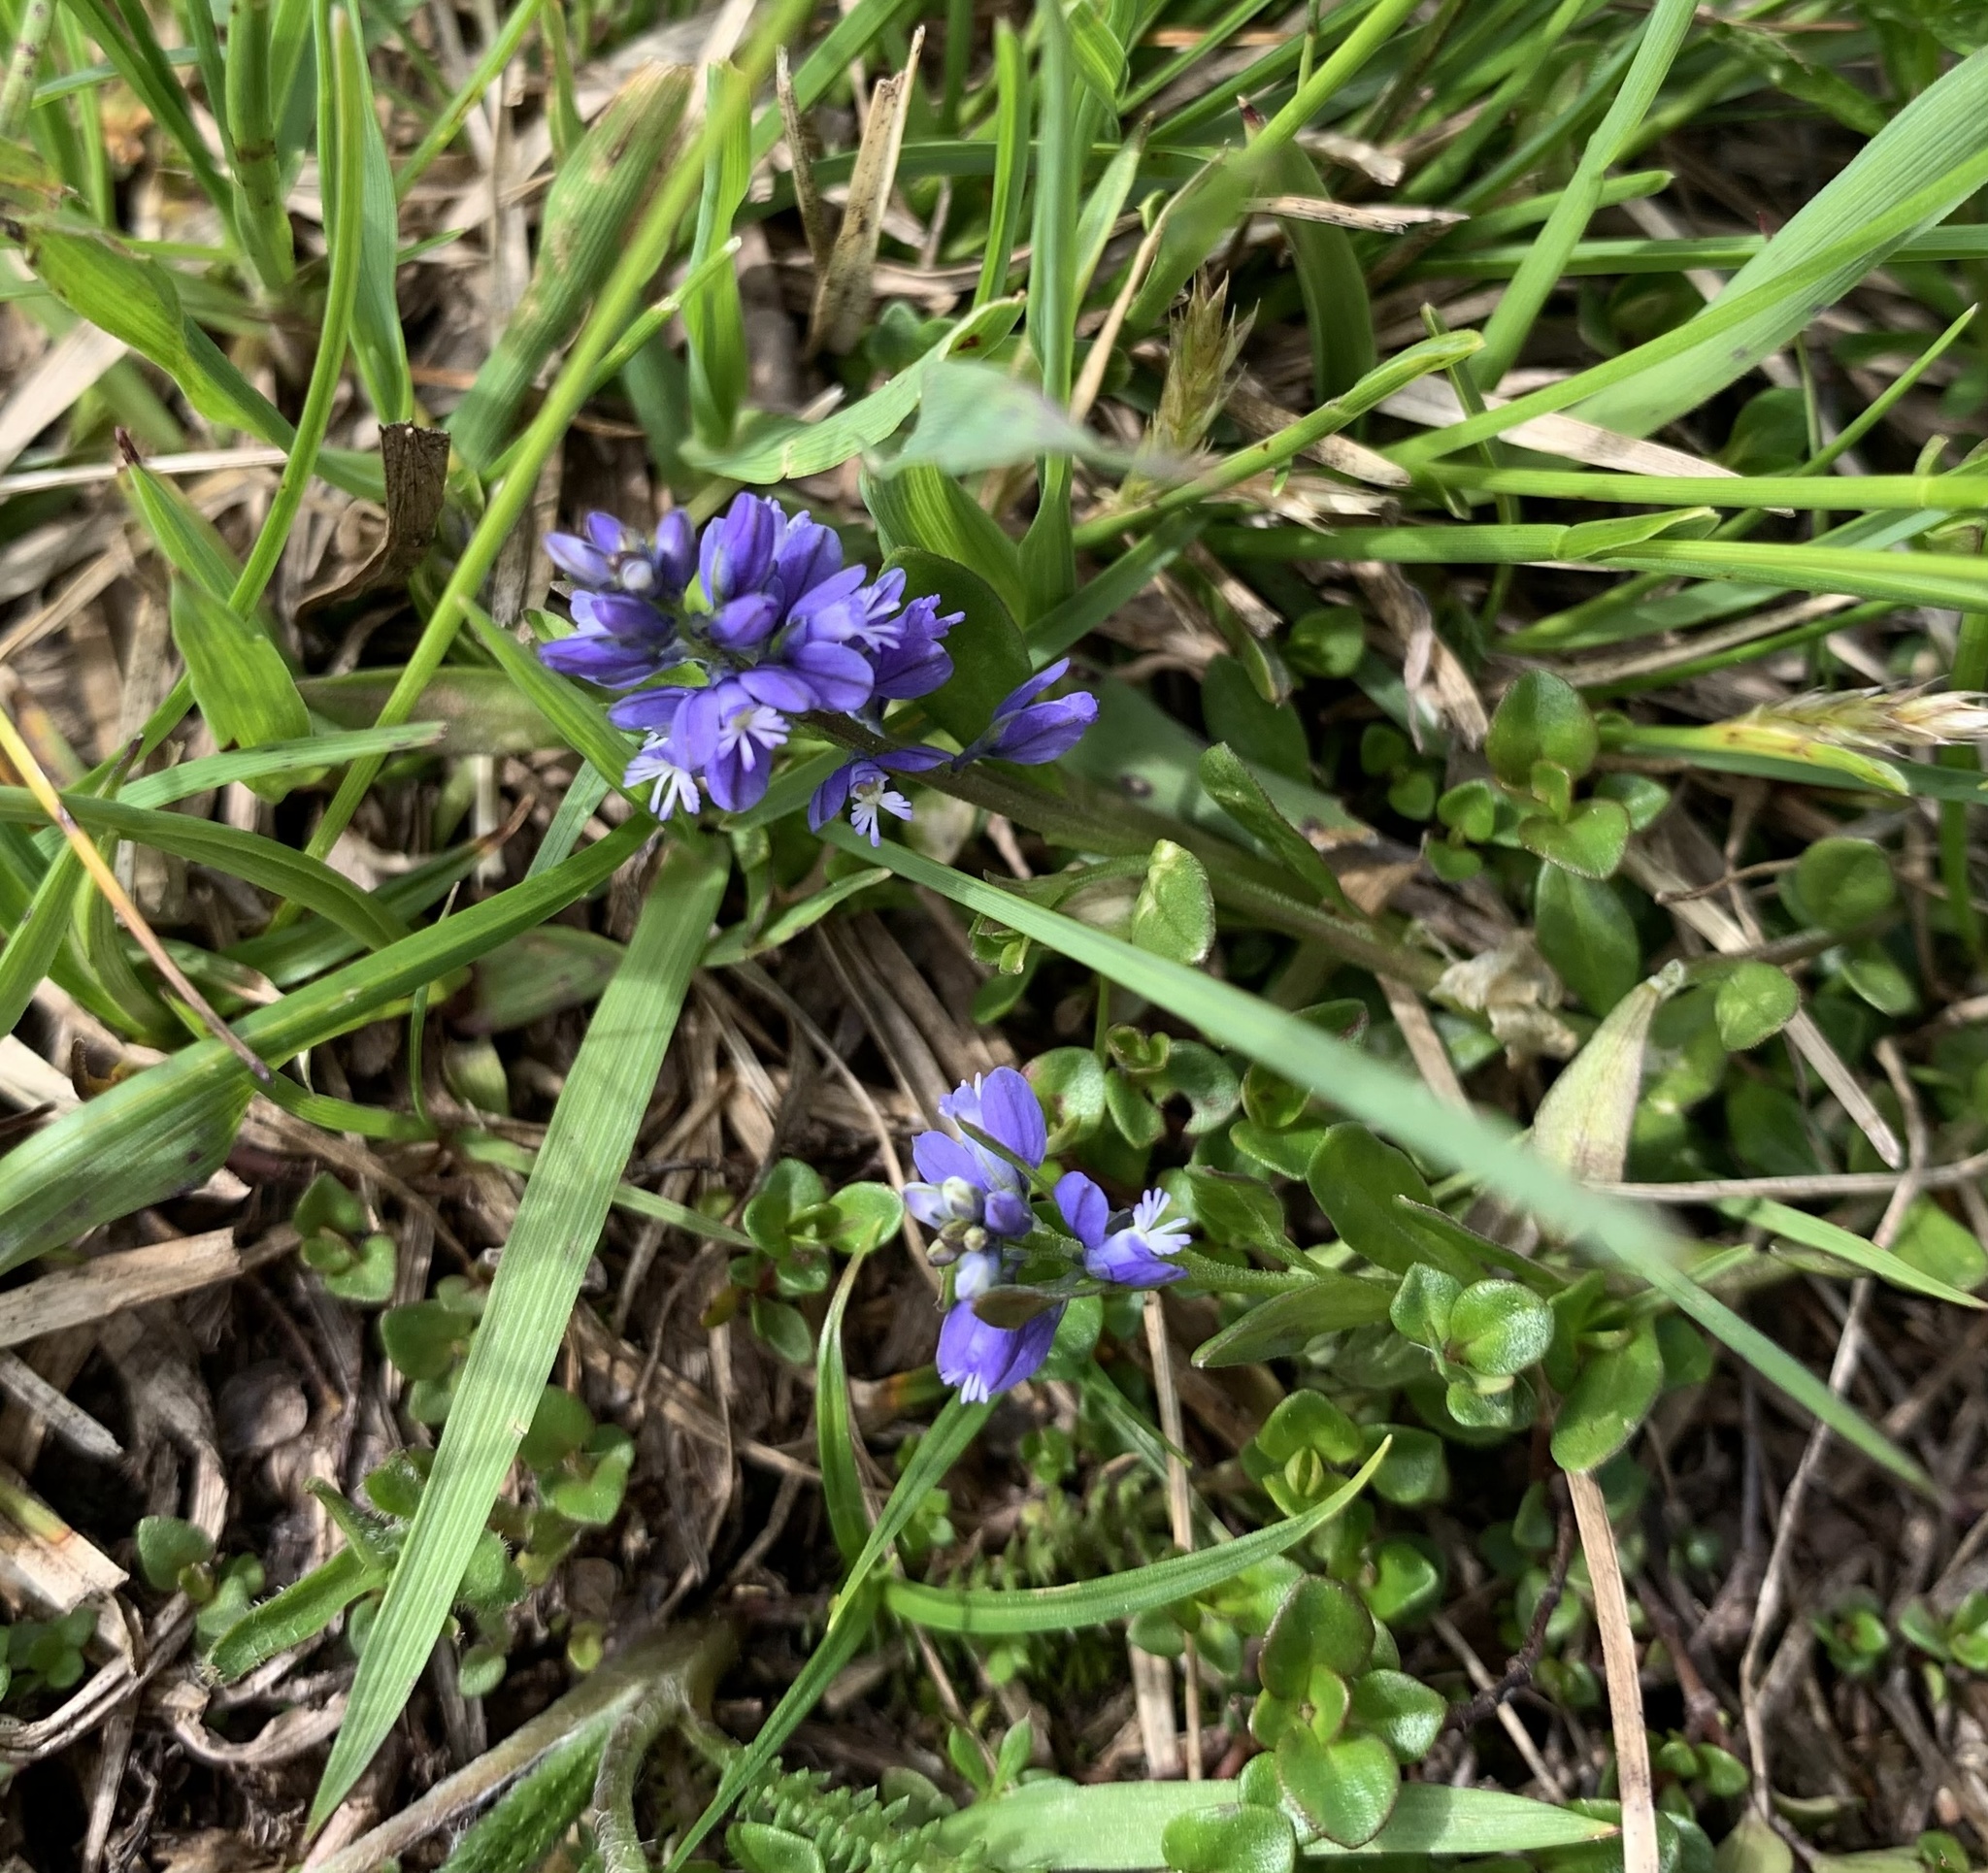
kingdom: Plantae
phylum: Tracheophyta
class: Magnoliopsida
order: Fabales
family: Polygalaceae
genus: Polygala
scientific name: Polygala alpestris
